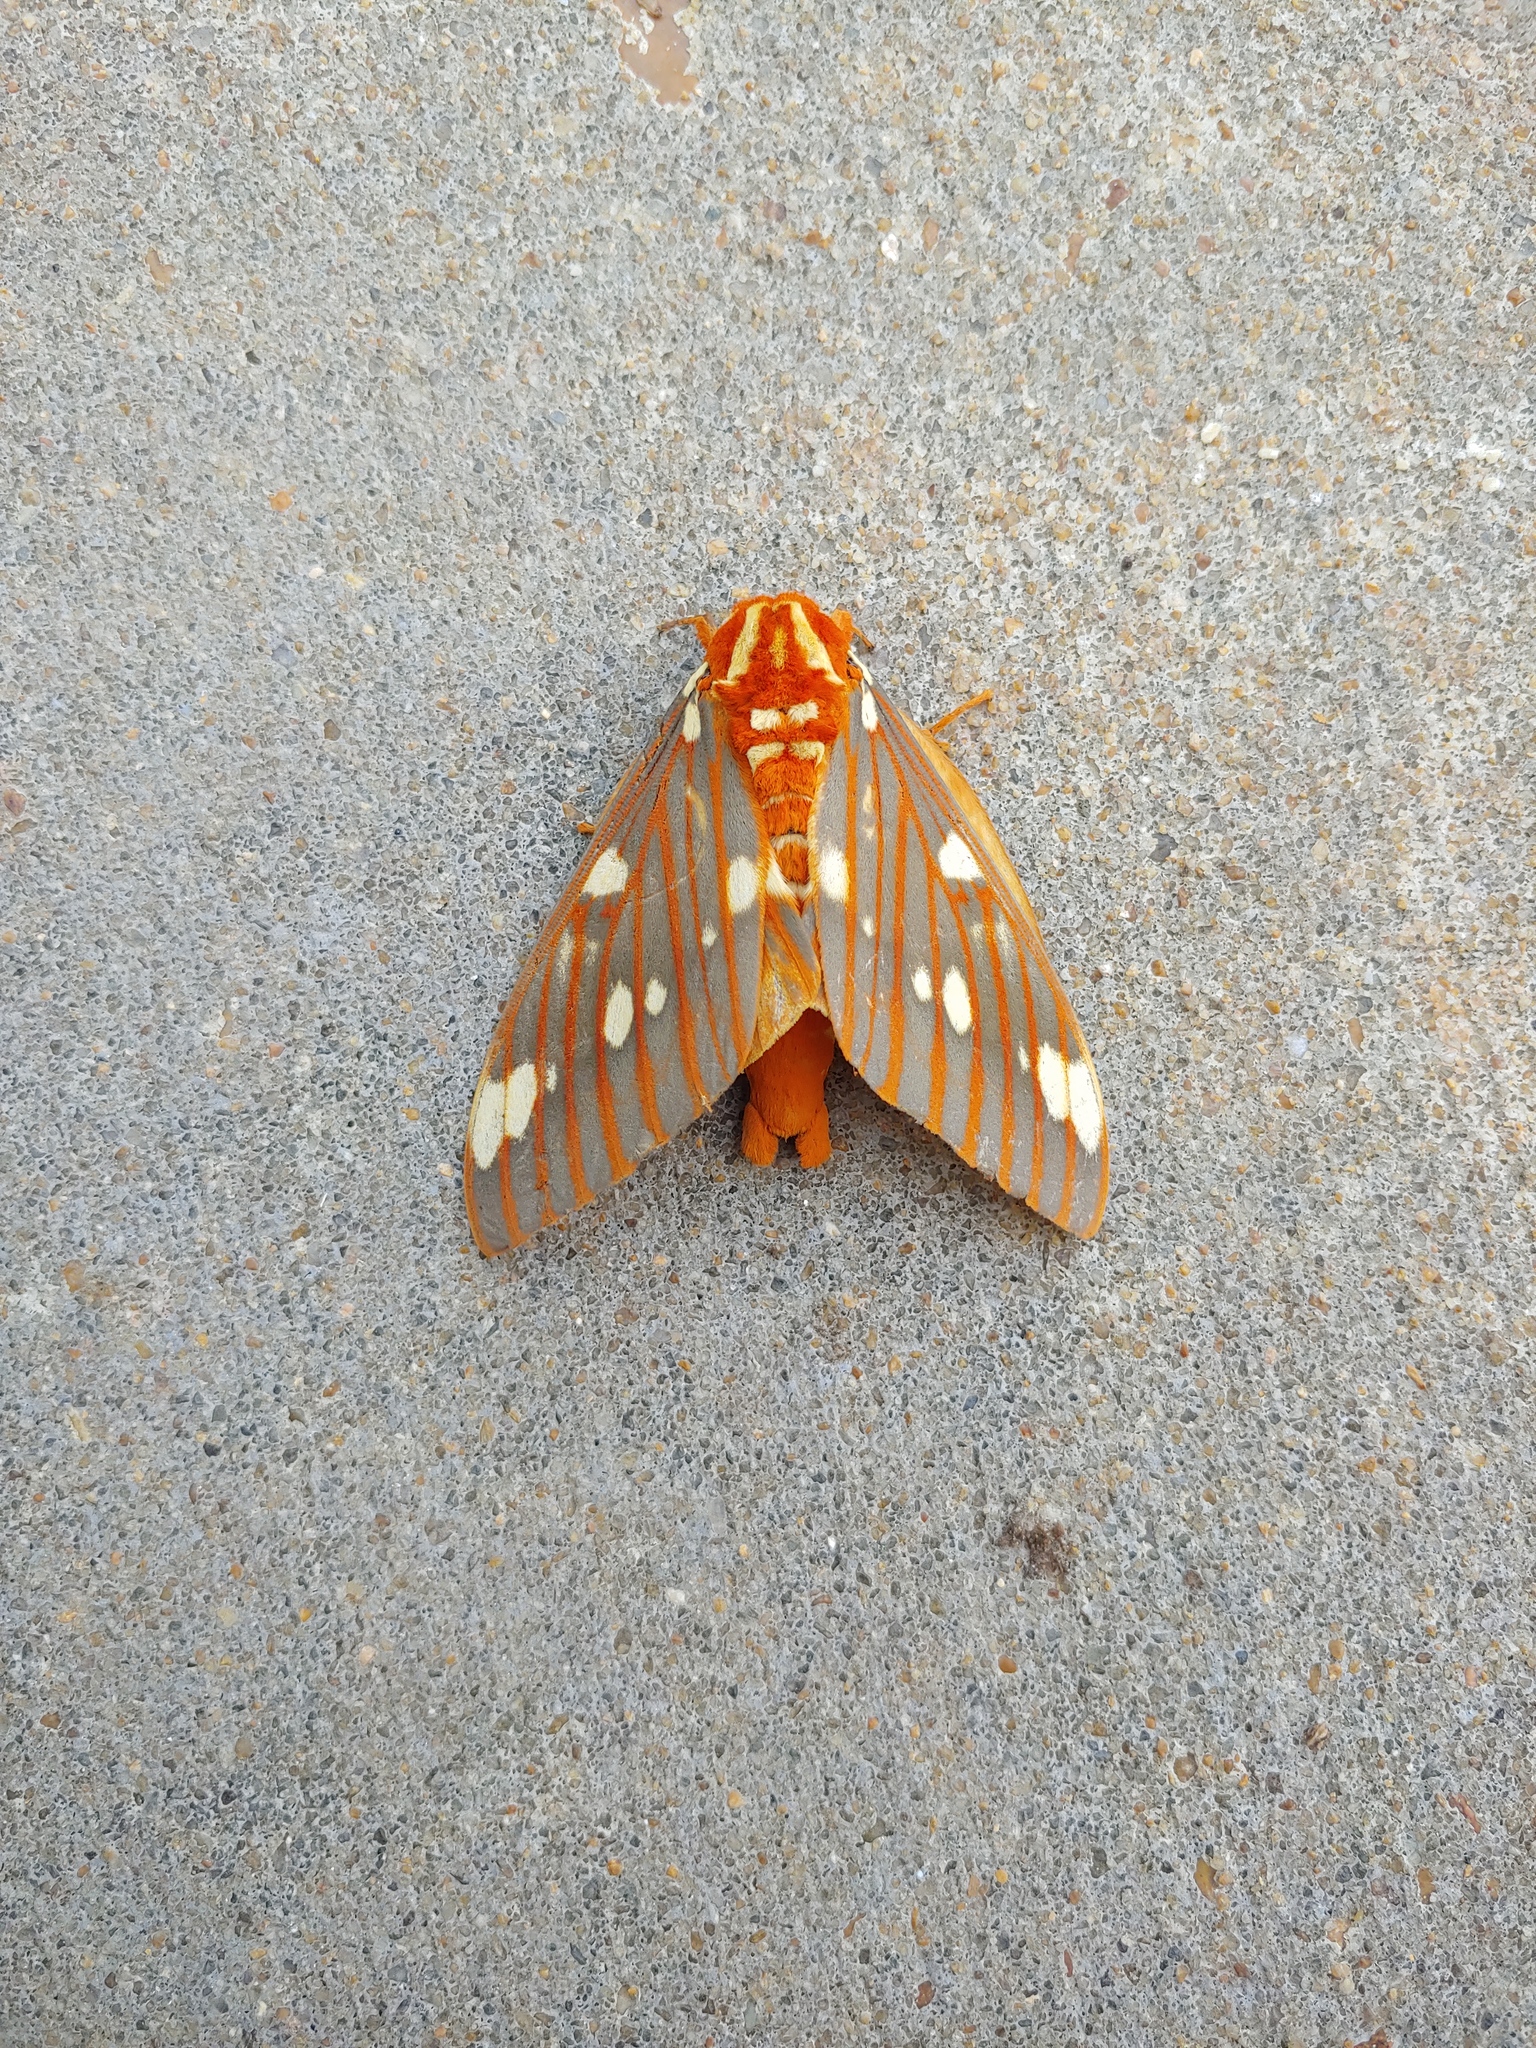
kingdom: Animalia
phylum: Arthropoda
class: Insecta
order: Lepidoptera
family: Saturniidae
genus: Citheronia
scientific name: Citheronia regalis
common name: Hickory horned devil
